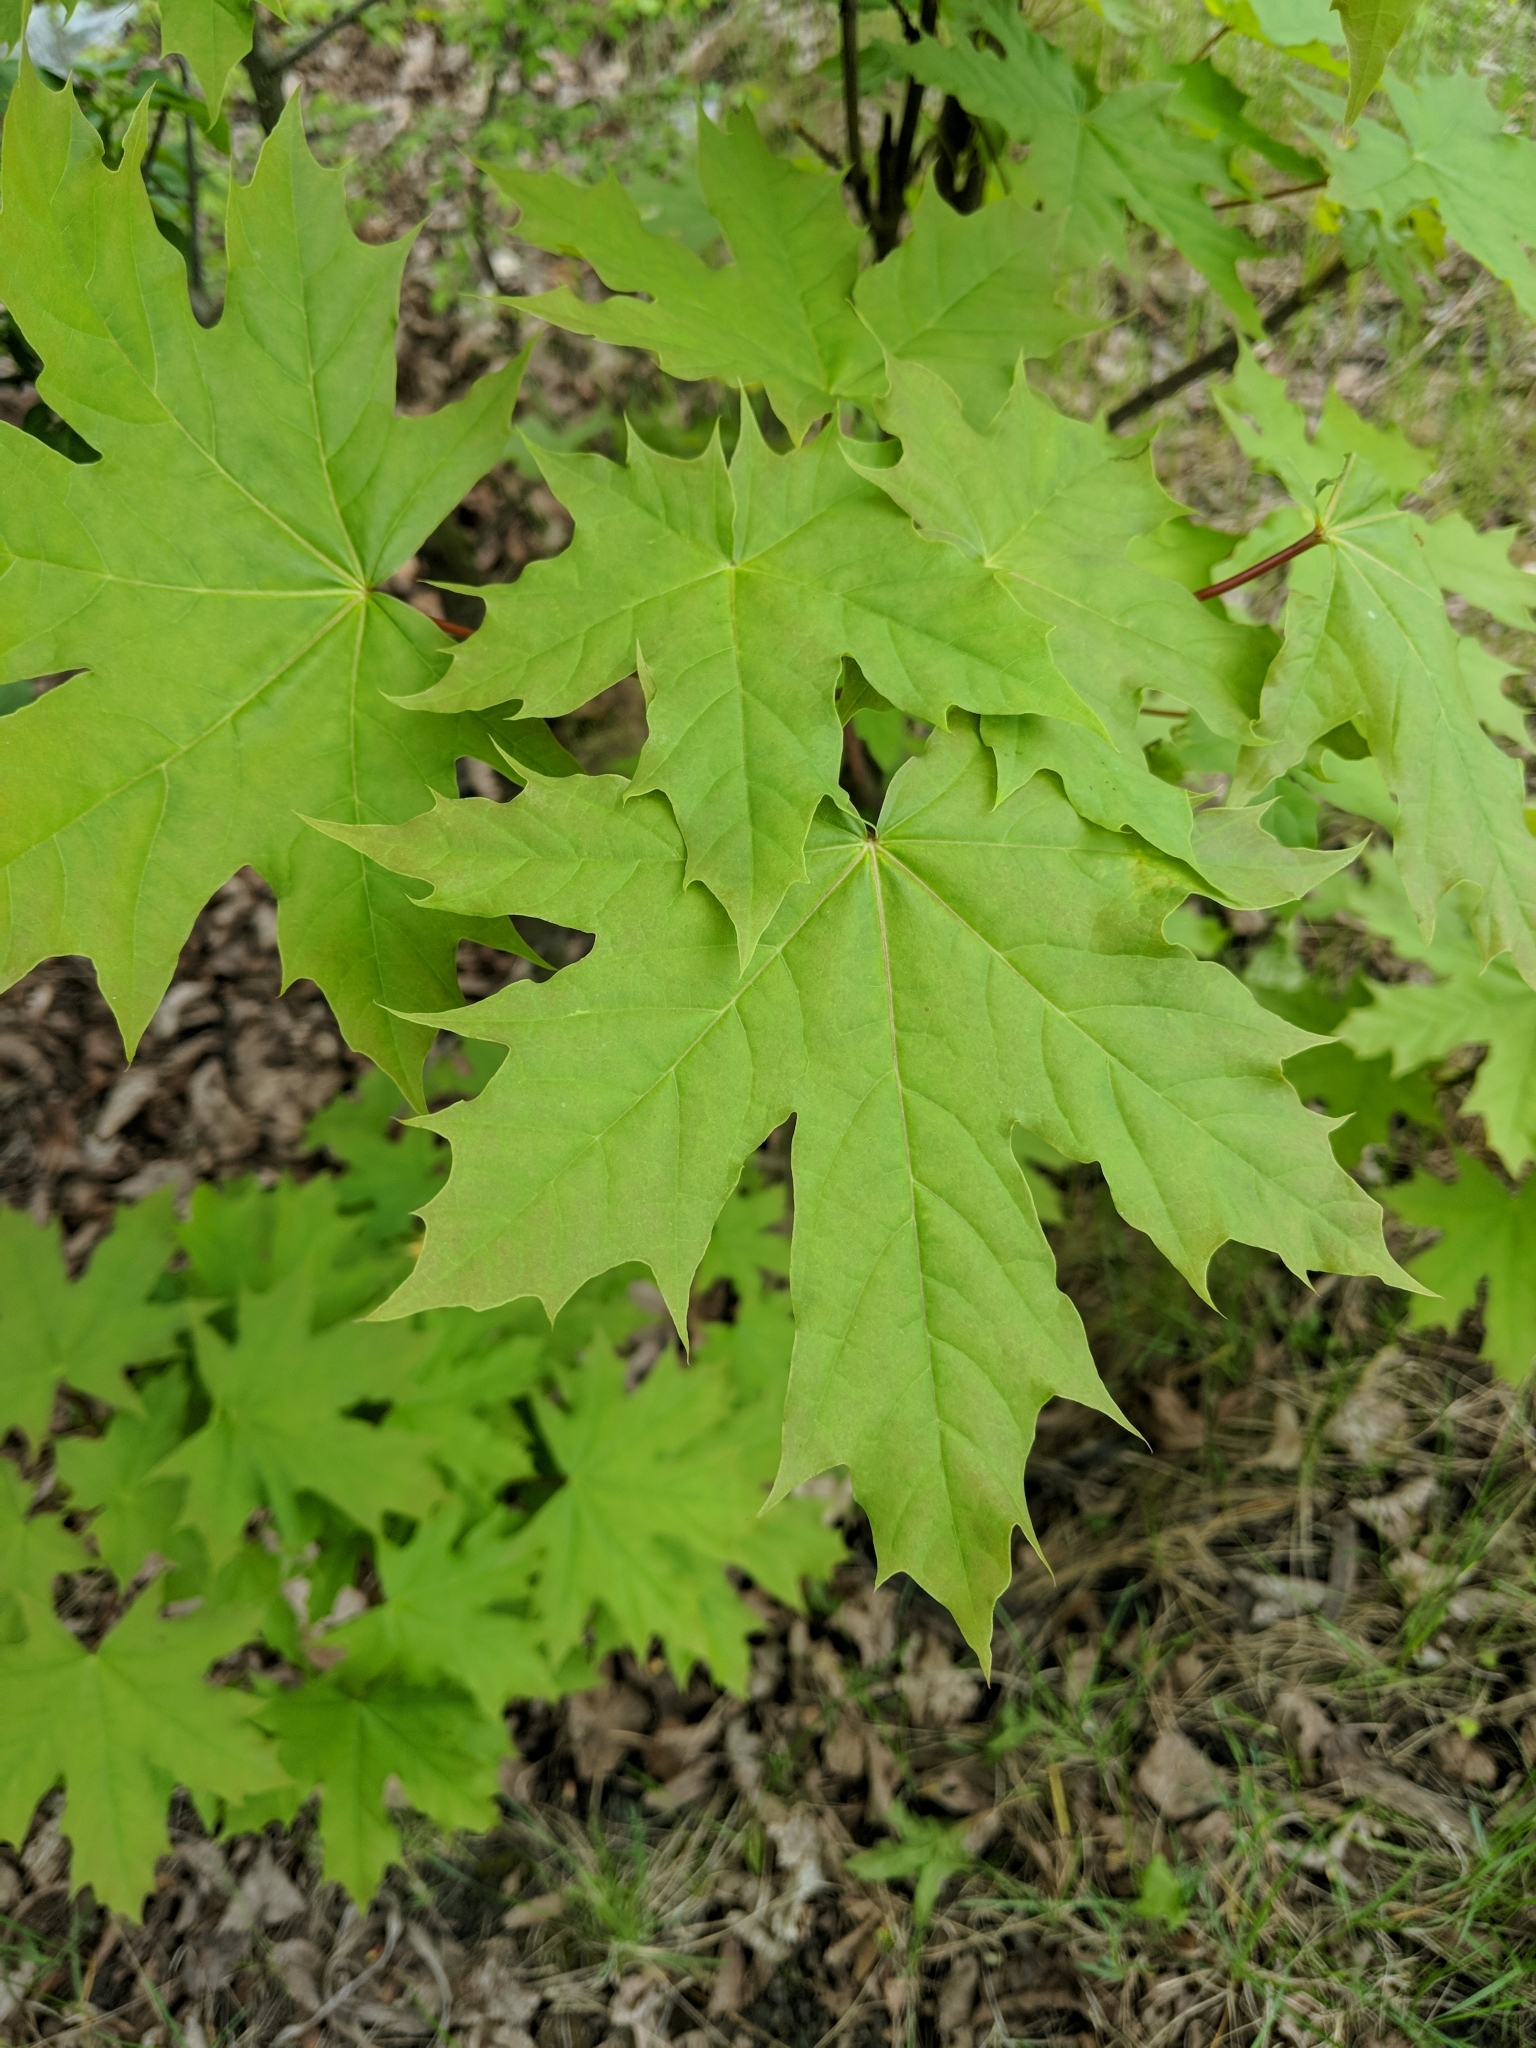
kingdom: Plantae
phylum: Tracheophyta
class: Magnoliopsida
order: Sapindales
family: Sapindaceae
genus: Acer
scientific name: Acer platanoides
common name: Norway maple
